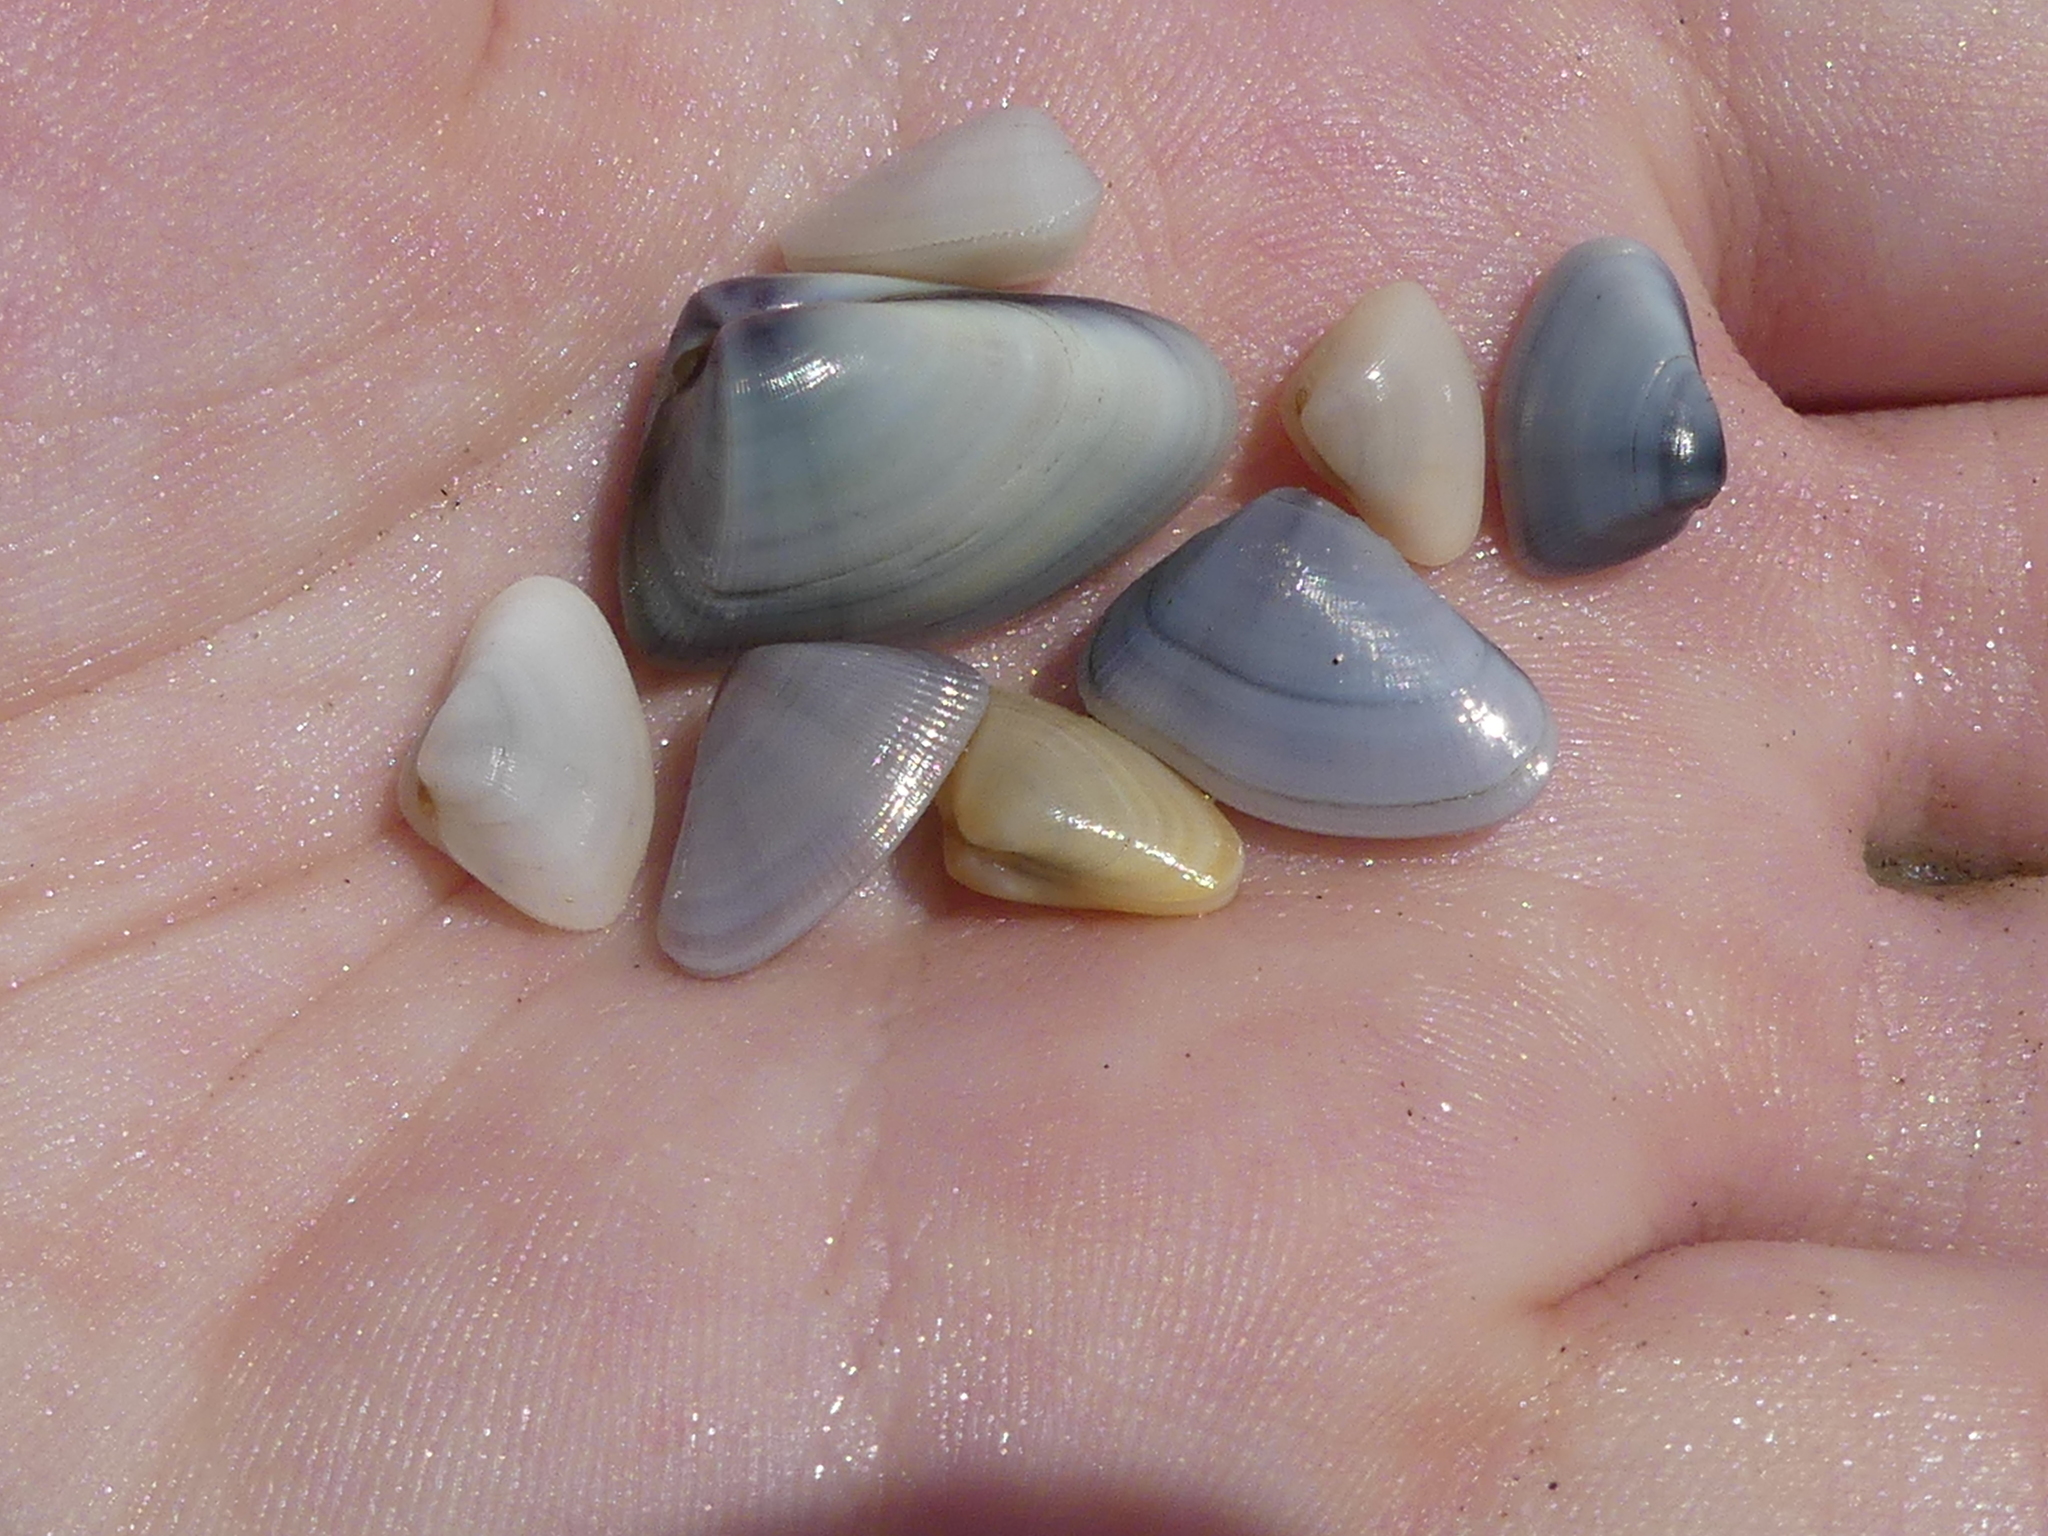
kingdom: Animalia
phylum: Mollusca
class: Bivalvia
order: Cardiida
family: Donacidae
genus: Donax
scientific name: Donax variabilis
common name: Butterfly shell
